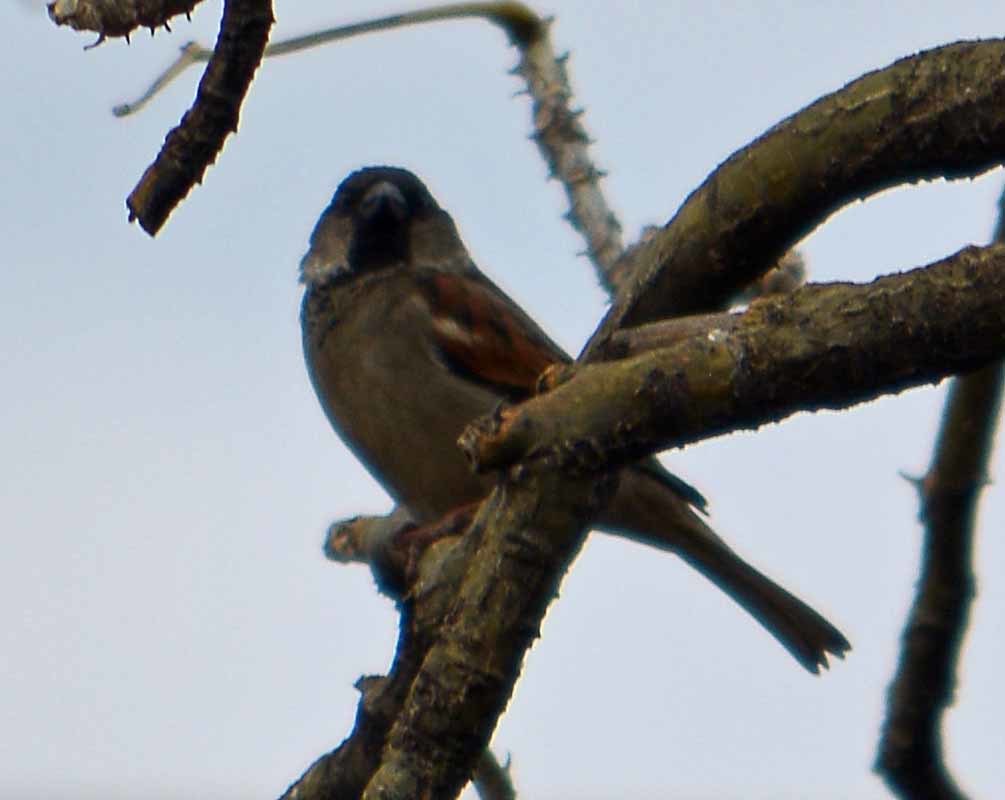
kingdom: Animalia
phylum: Chordata
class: Aves
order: Passeriformes
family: Passeridae
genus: Passer
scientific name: Passer domesticus
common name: House sparrow
